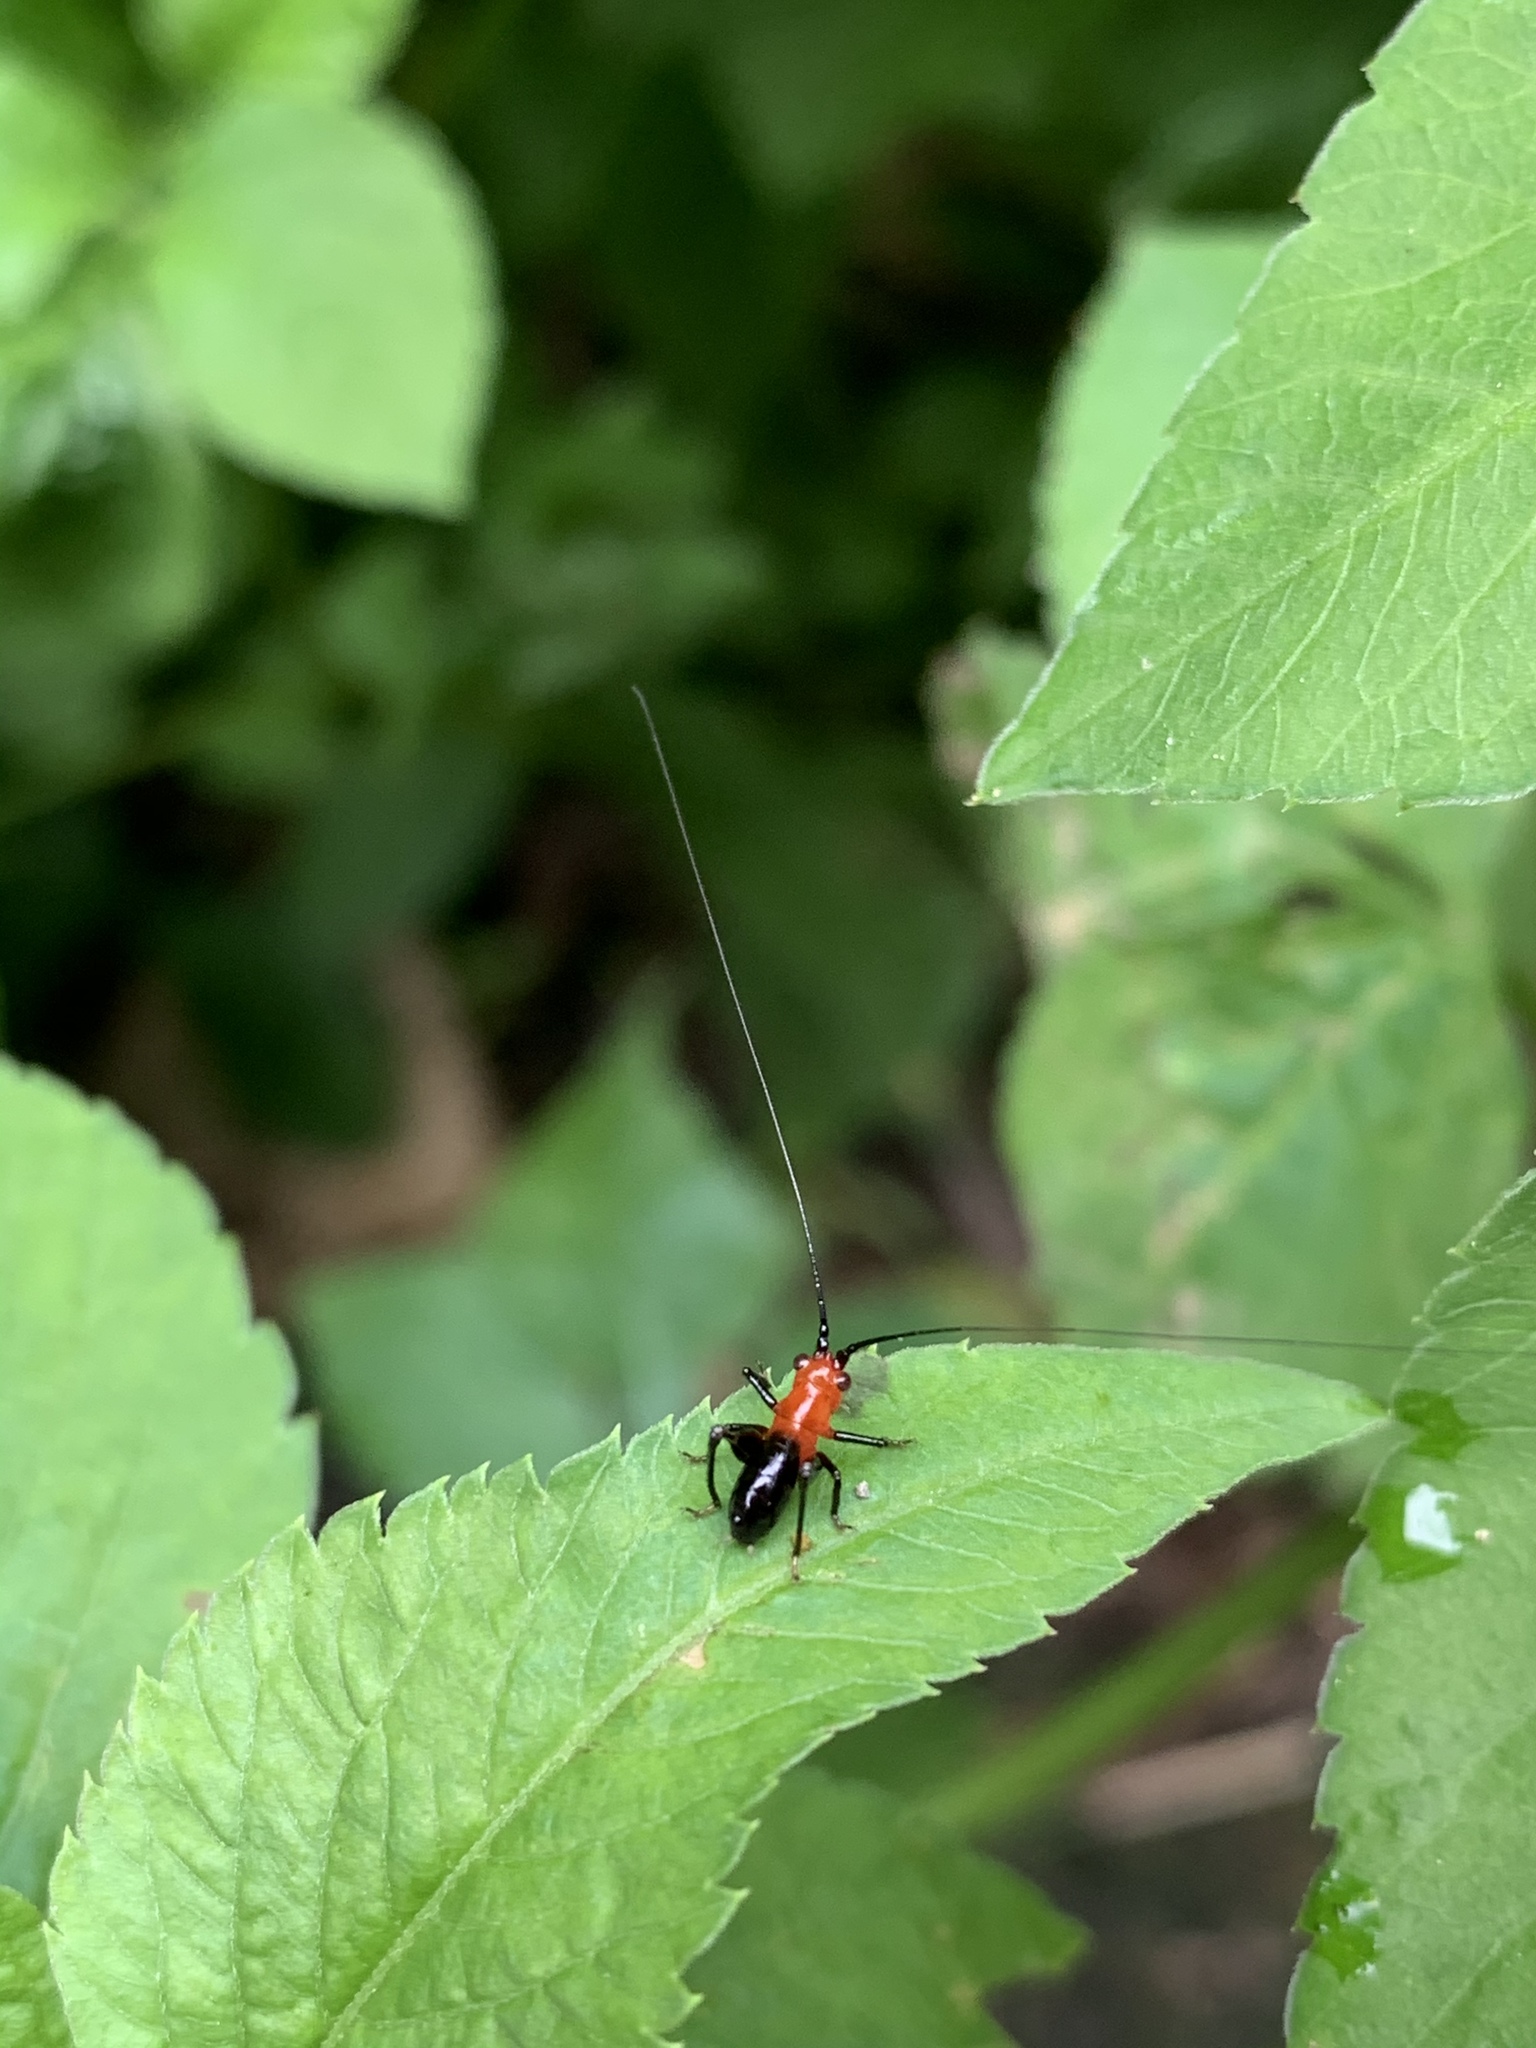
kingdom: Animalia
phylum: Arthropoda
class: Insecta
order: Orthoptera
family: Tettigoniidae
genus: Conocephalus
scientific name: Conocephalus melaenus
